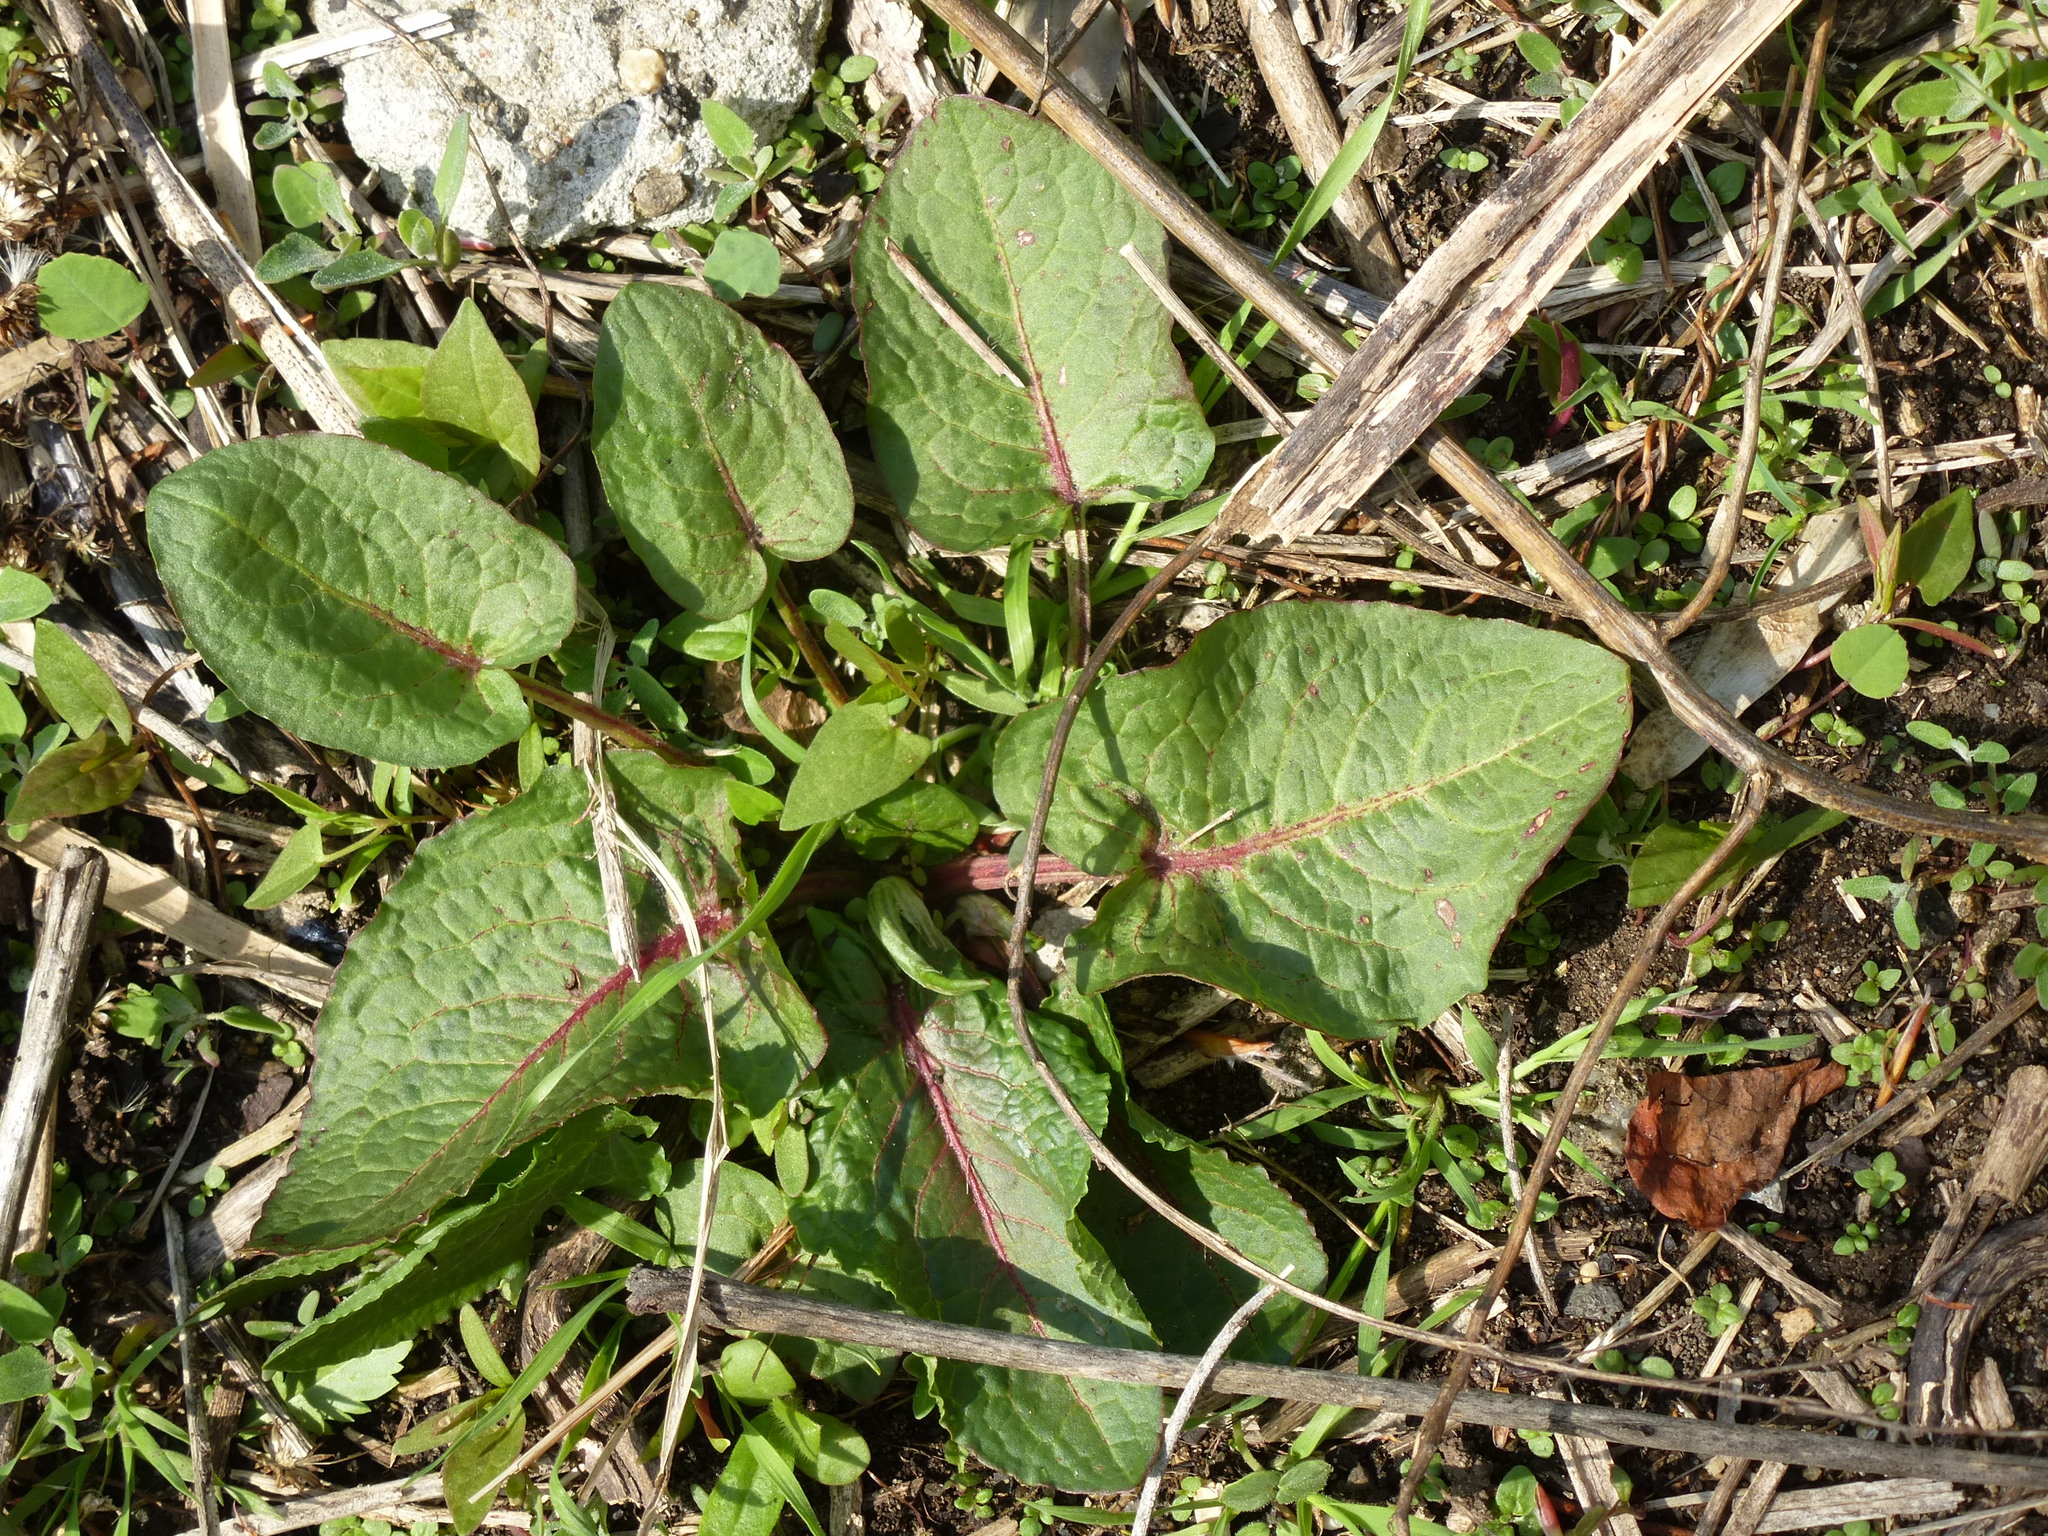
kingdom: Plantae
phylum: Tracheophyta
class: Magnoliopsida
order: Caryophyllales
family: Polygonaceae
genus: Rumex
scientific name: Rumex obtusifolius
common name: Bitter dock
